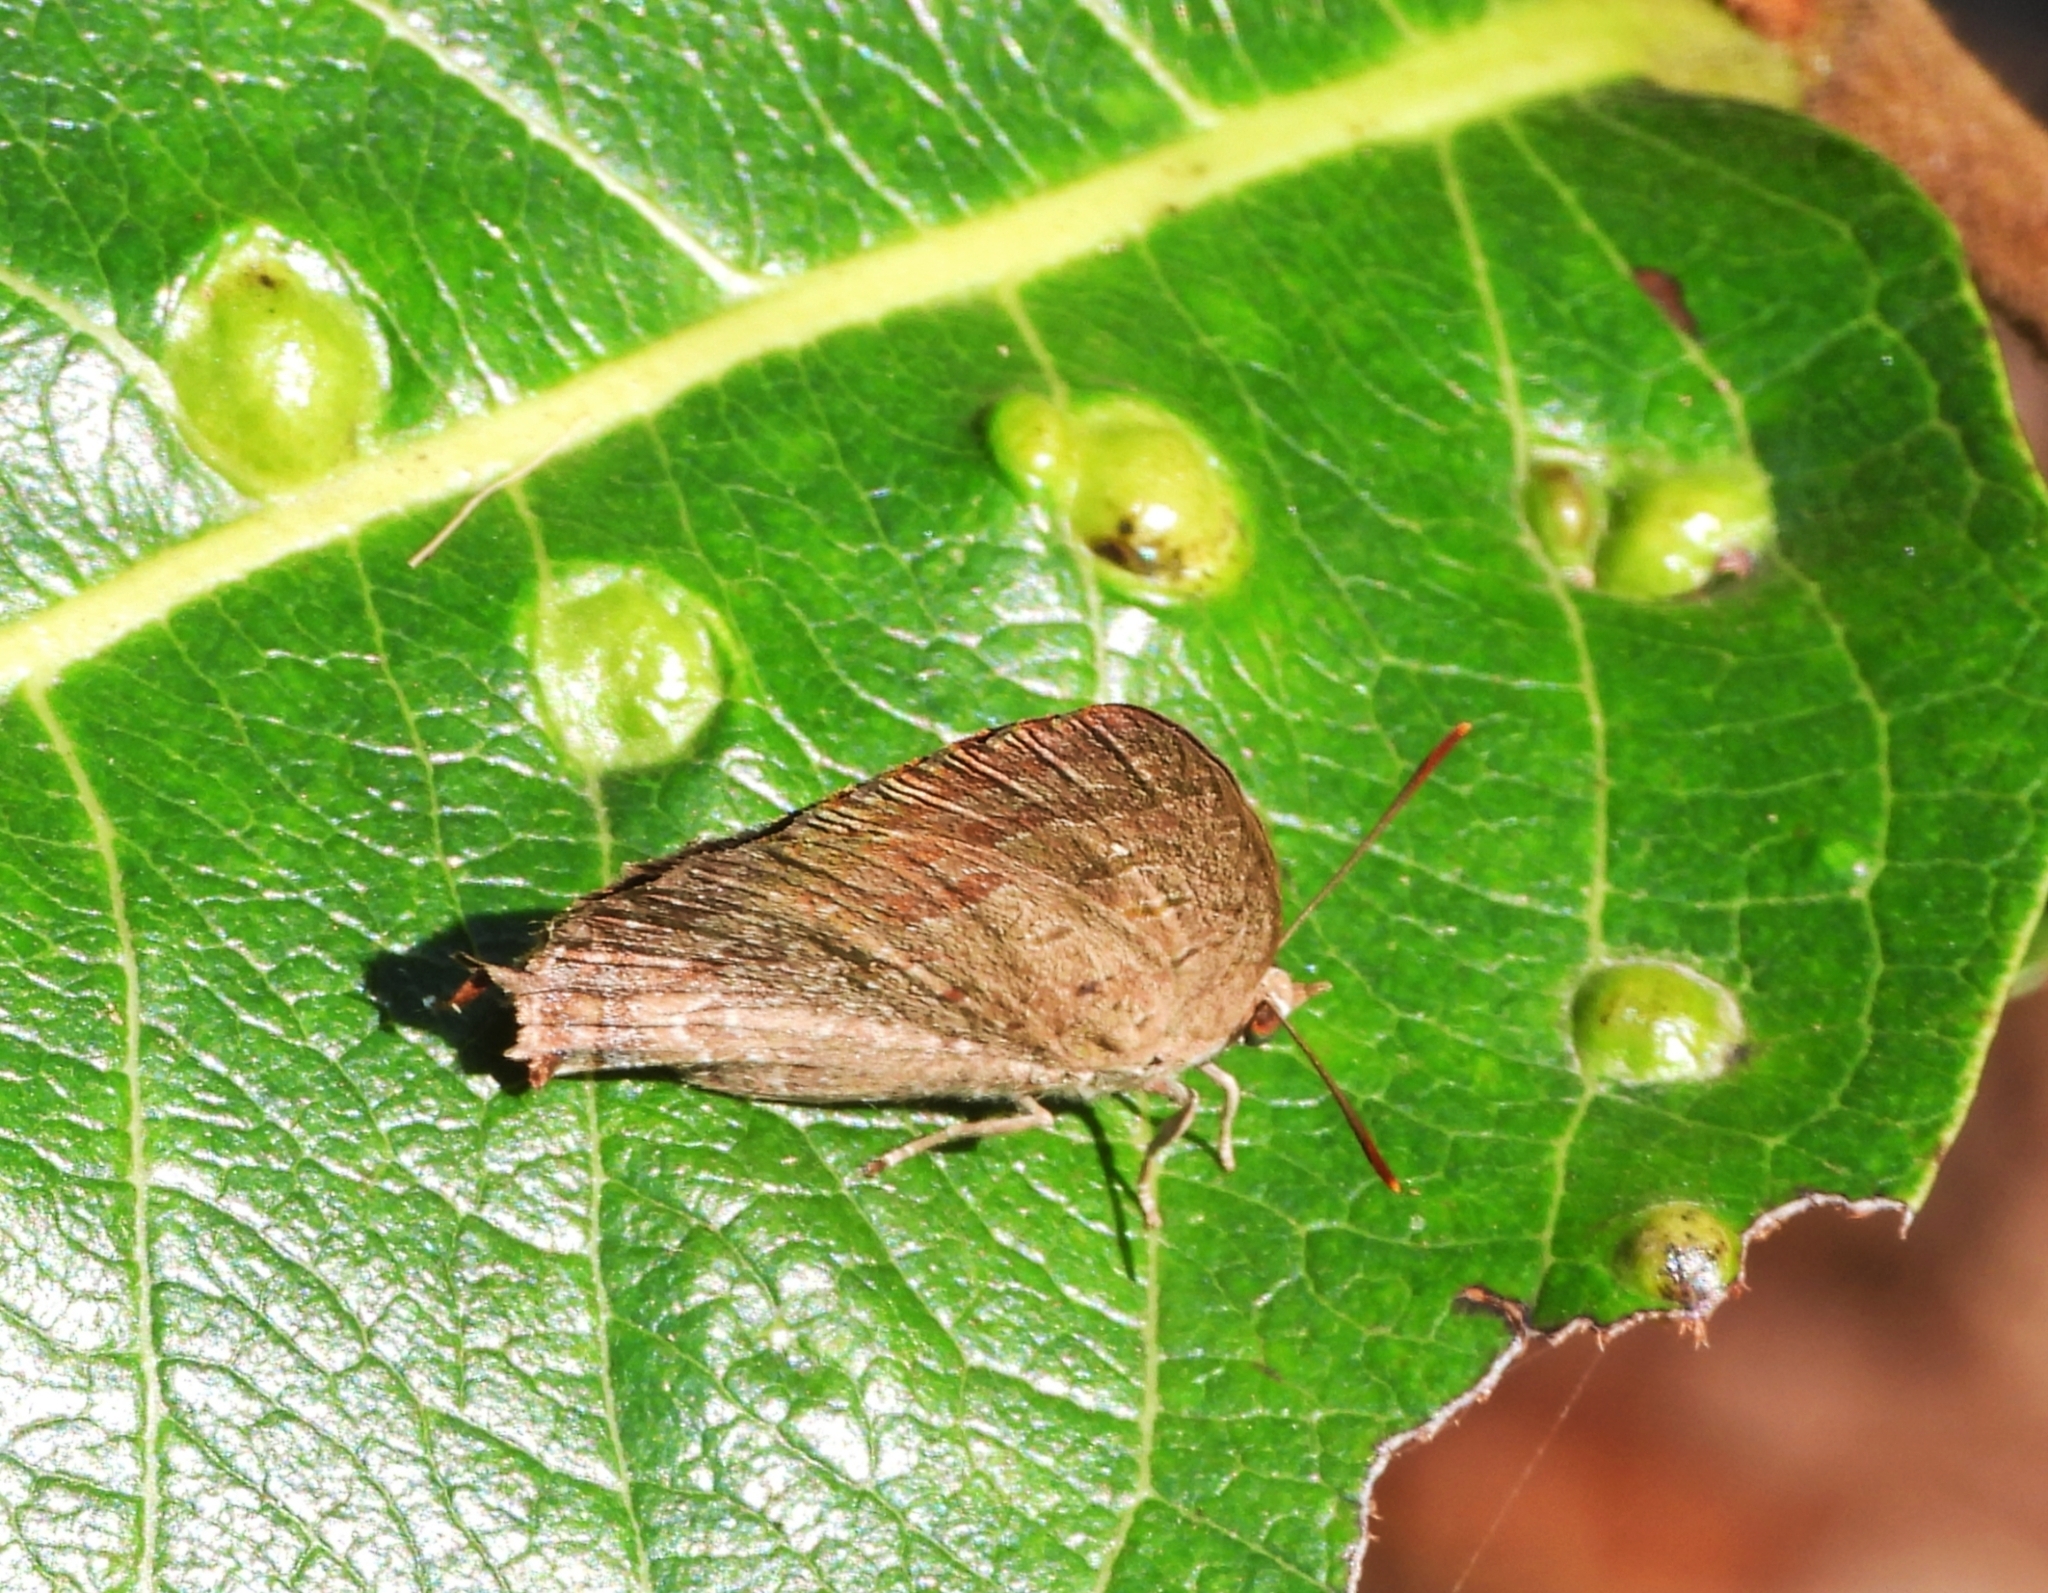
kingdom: Animalia
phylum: Arthropoda
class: Insecta
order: Lepidoptera
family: Lycaenidae
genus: Arhopala
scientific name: Arhopala atrax
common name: Indian oakblue
